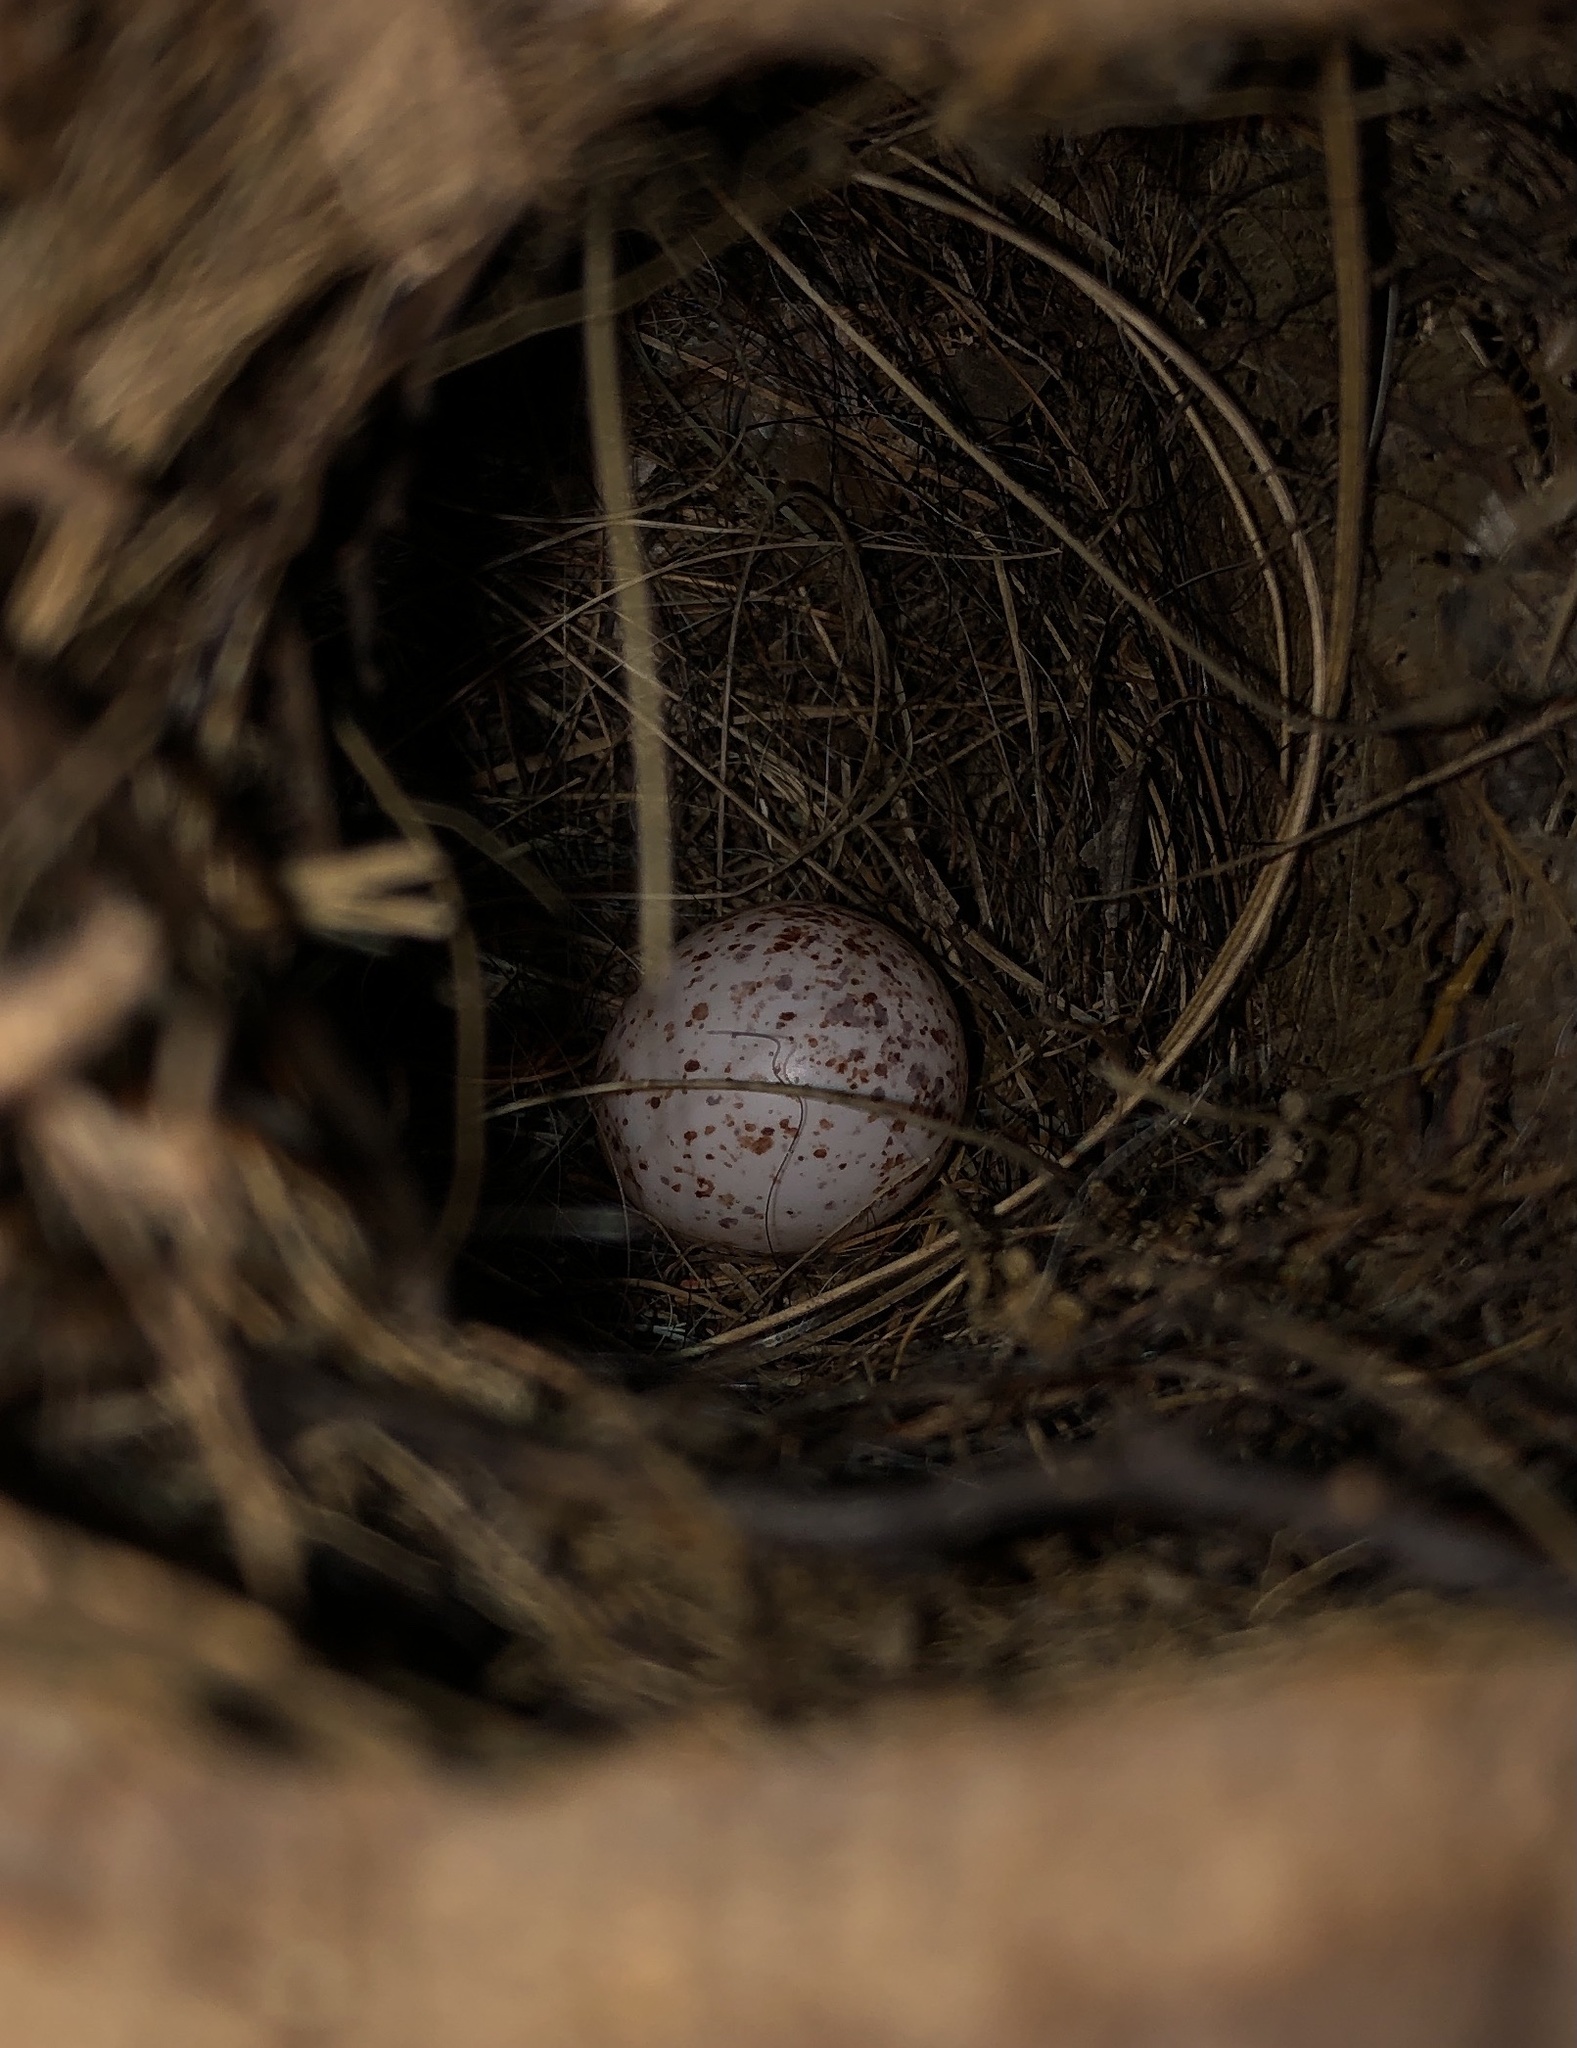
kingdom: Animalia
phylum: Chordata
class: Aves
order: Passeriformes
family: Troglodytidae
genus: Thryothorus
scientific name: Thryothorus ludovicianus
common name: Carolina wren
